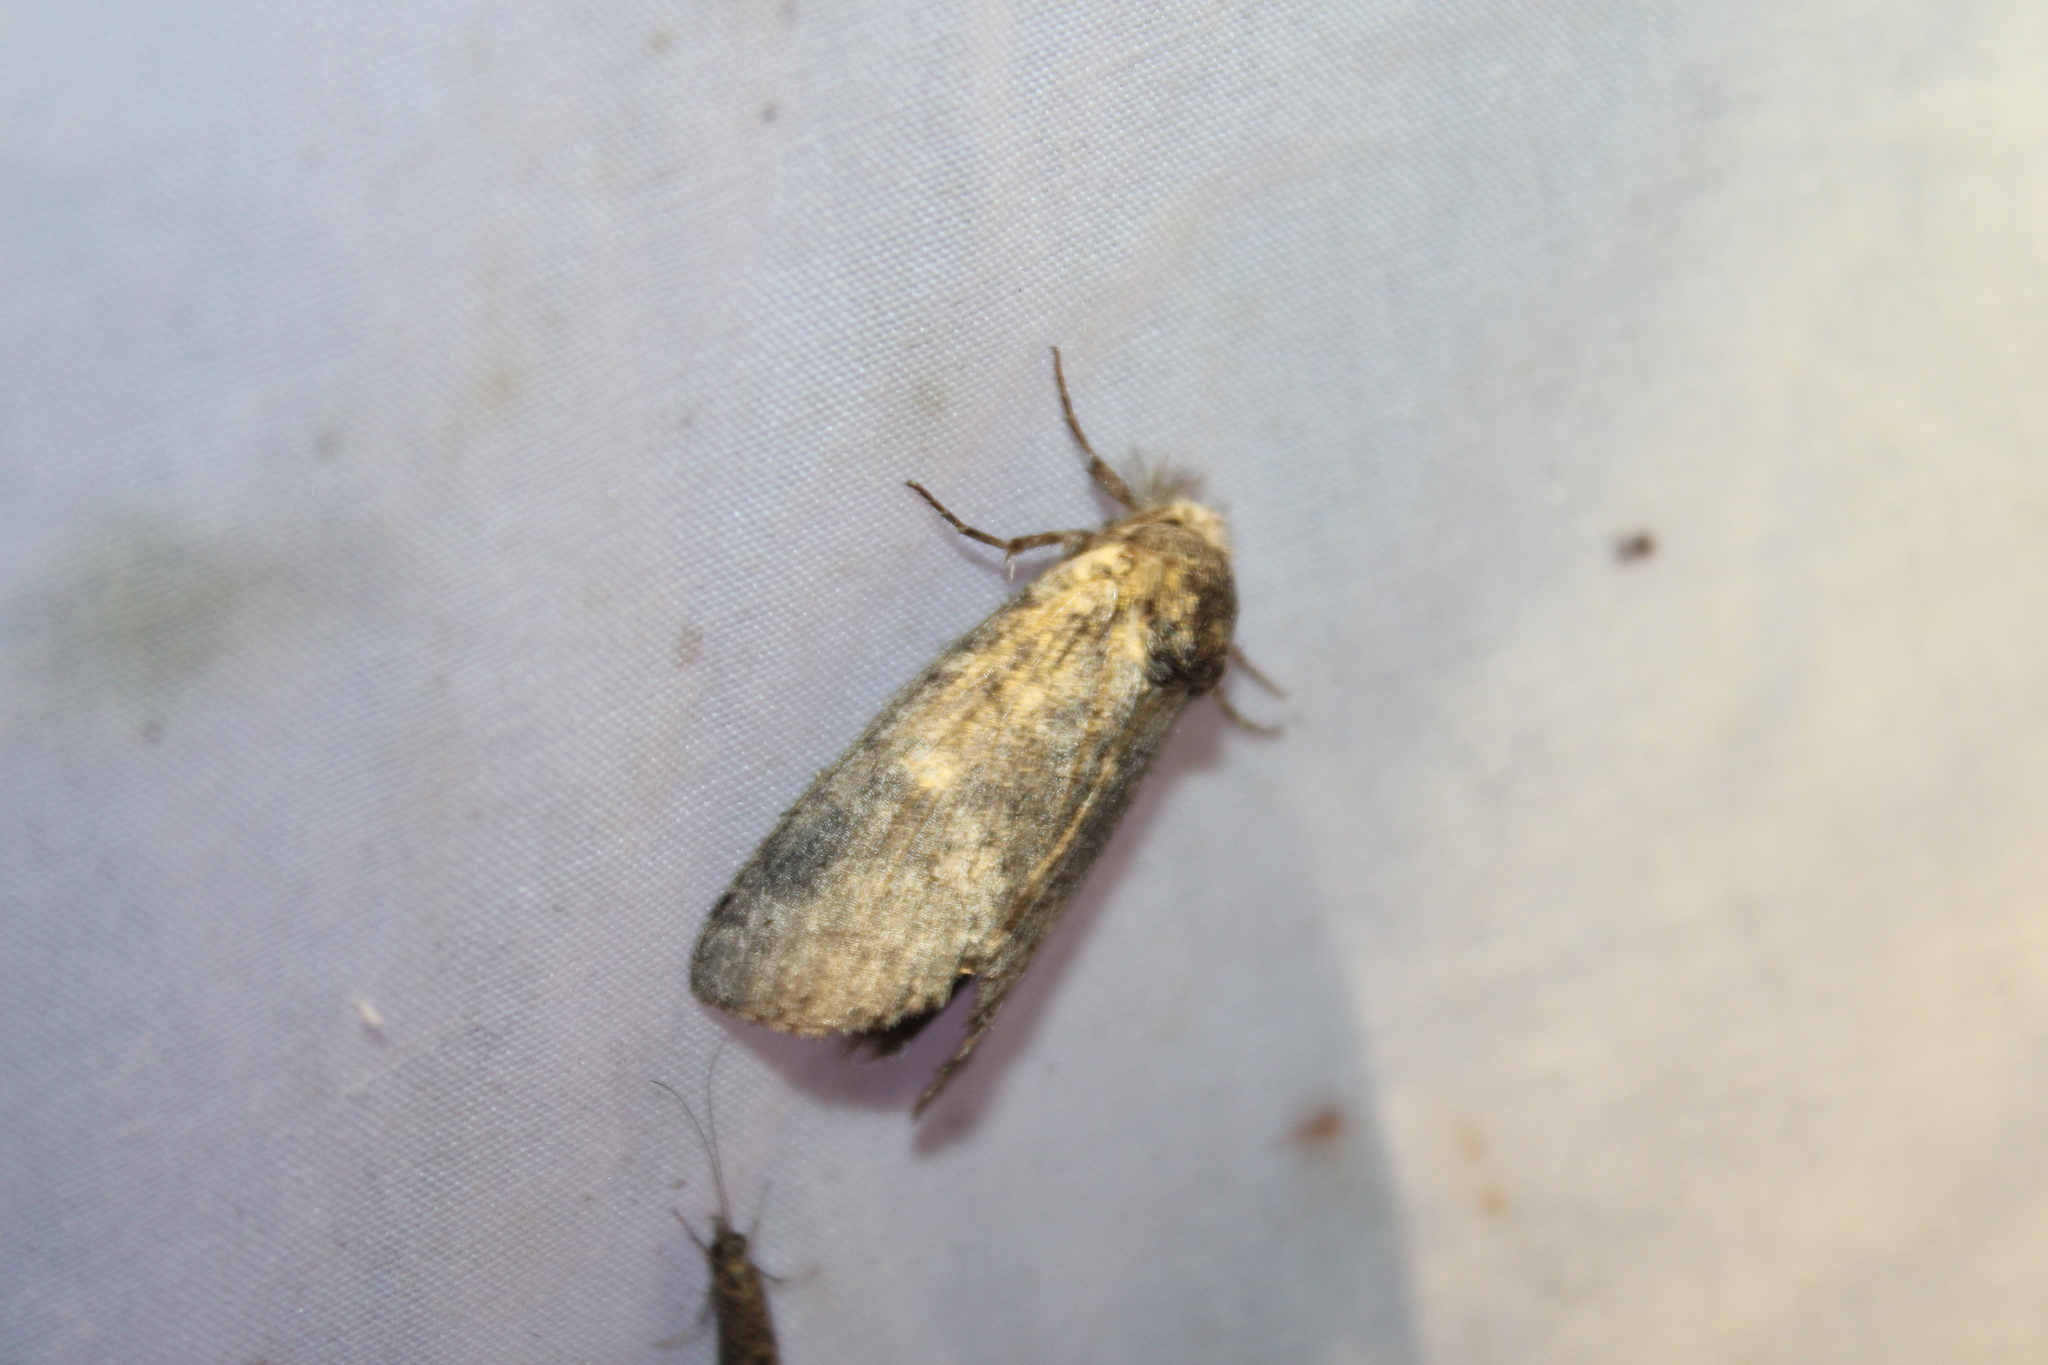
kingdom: Animalia
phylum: Arthropoda
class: Insecta
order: Lepidoptera
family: Notodontidae
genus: Lochmaeus
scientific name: Lochmaeus manteo
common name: Variable oakleaf caterpillar moth
